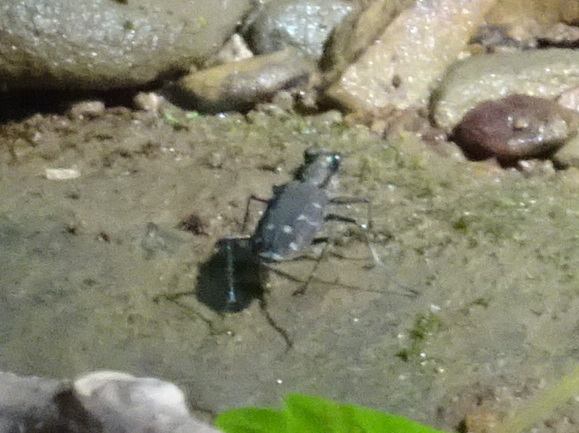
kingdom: Animalia
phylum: Arthropoda
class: Insecta
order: Coleoptera
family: Carabidae
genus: Cicindela
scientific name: Cicindela duodecimguttata
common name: Twelve-spotted tiger beetle
